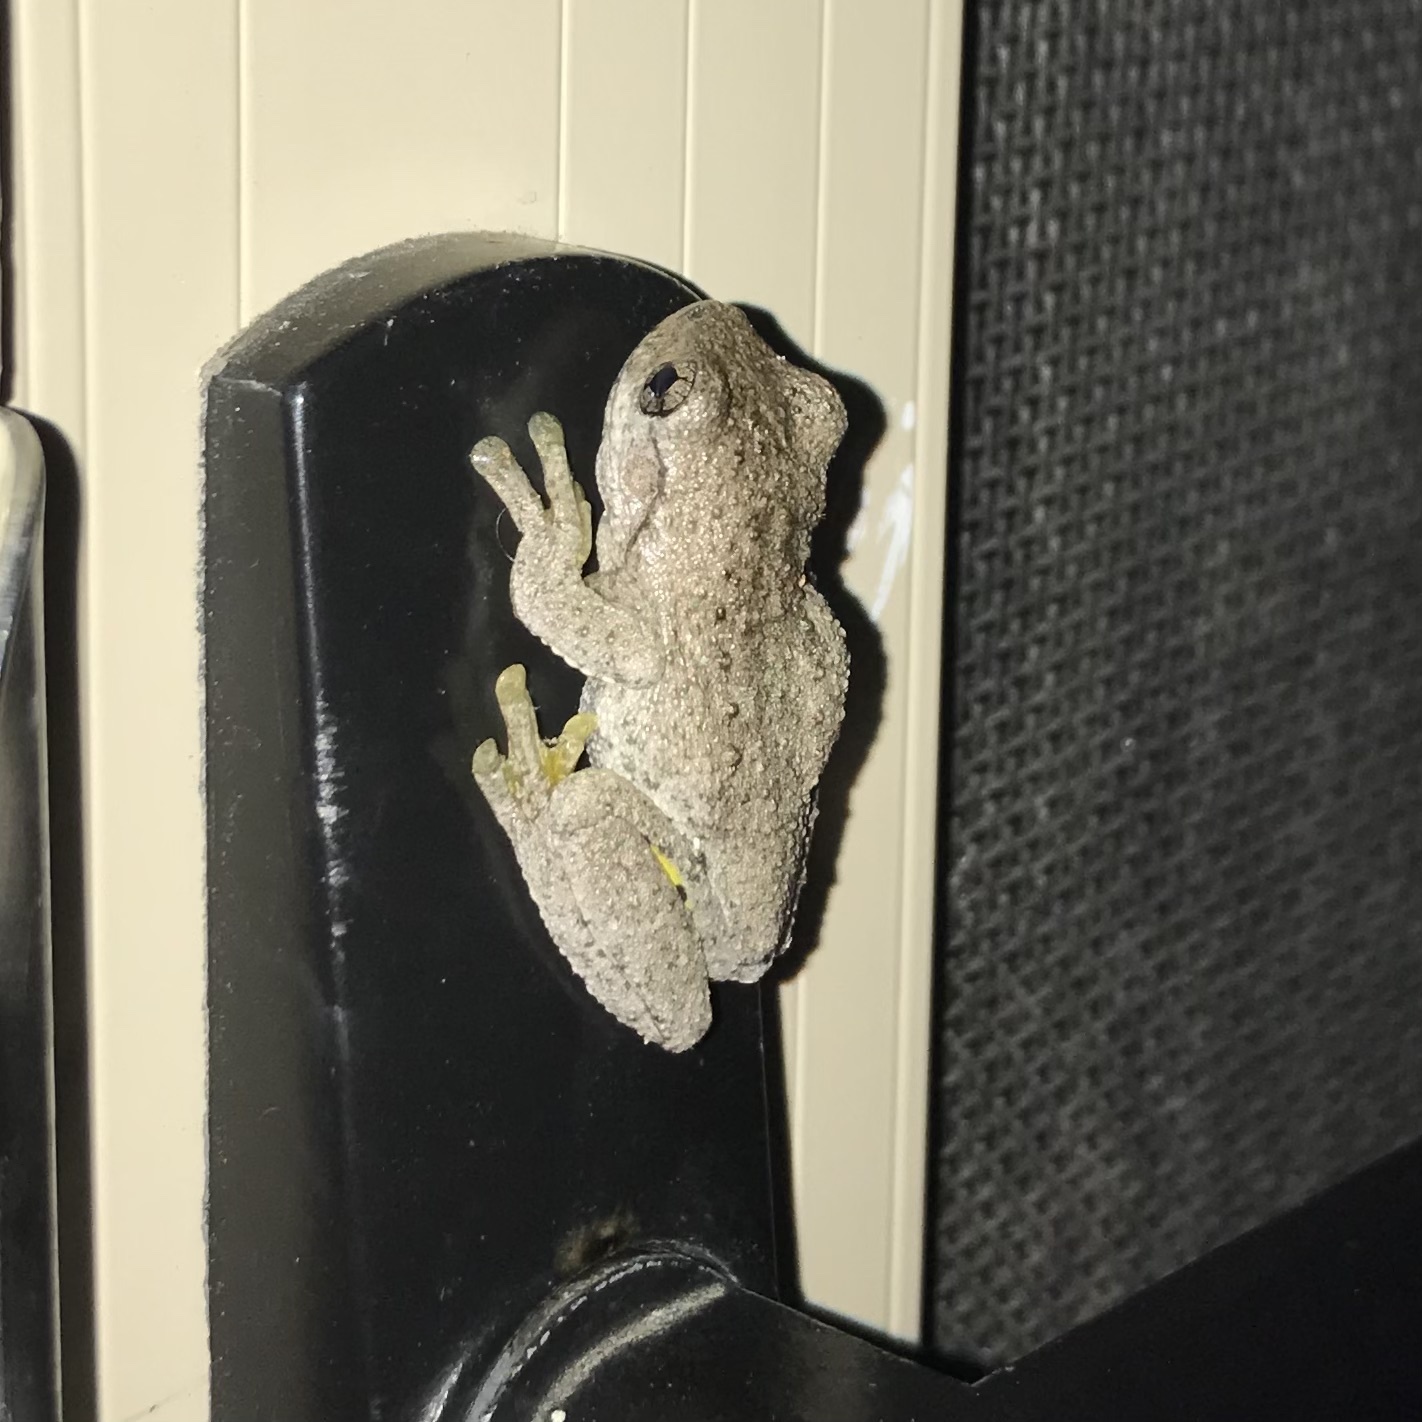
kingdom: Animalia
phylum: Chordata
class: Amphibia
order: Anura
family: Pelodryadidae
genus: Litoria
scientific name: Litoria peronii
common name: Emerald spotted treefrog
